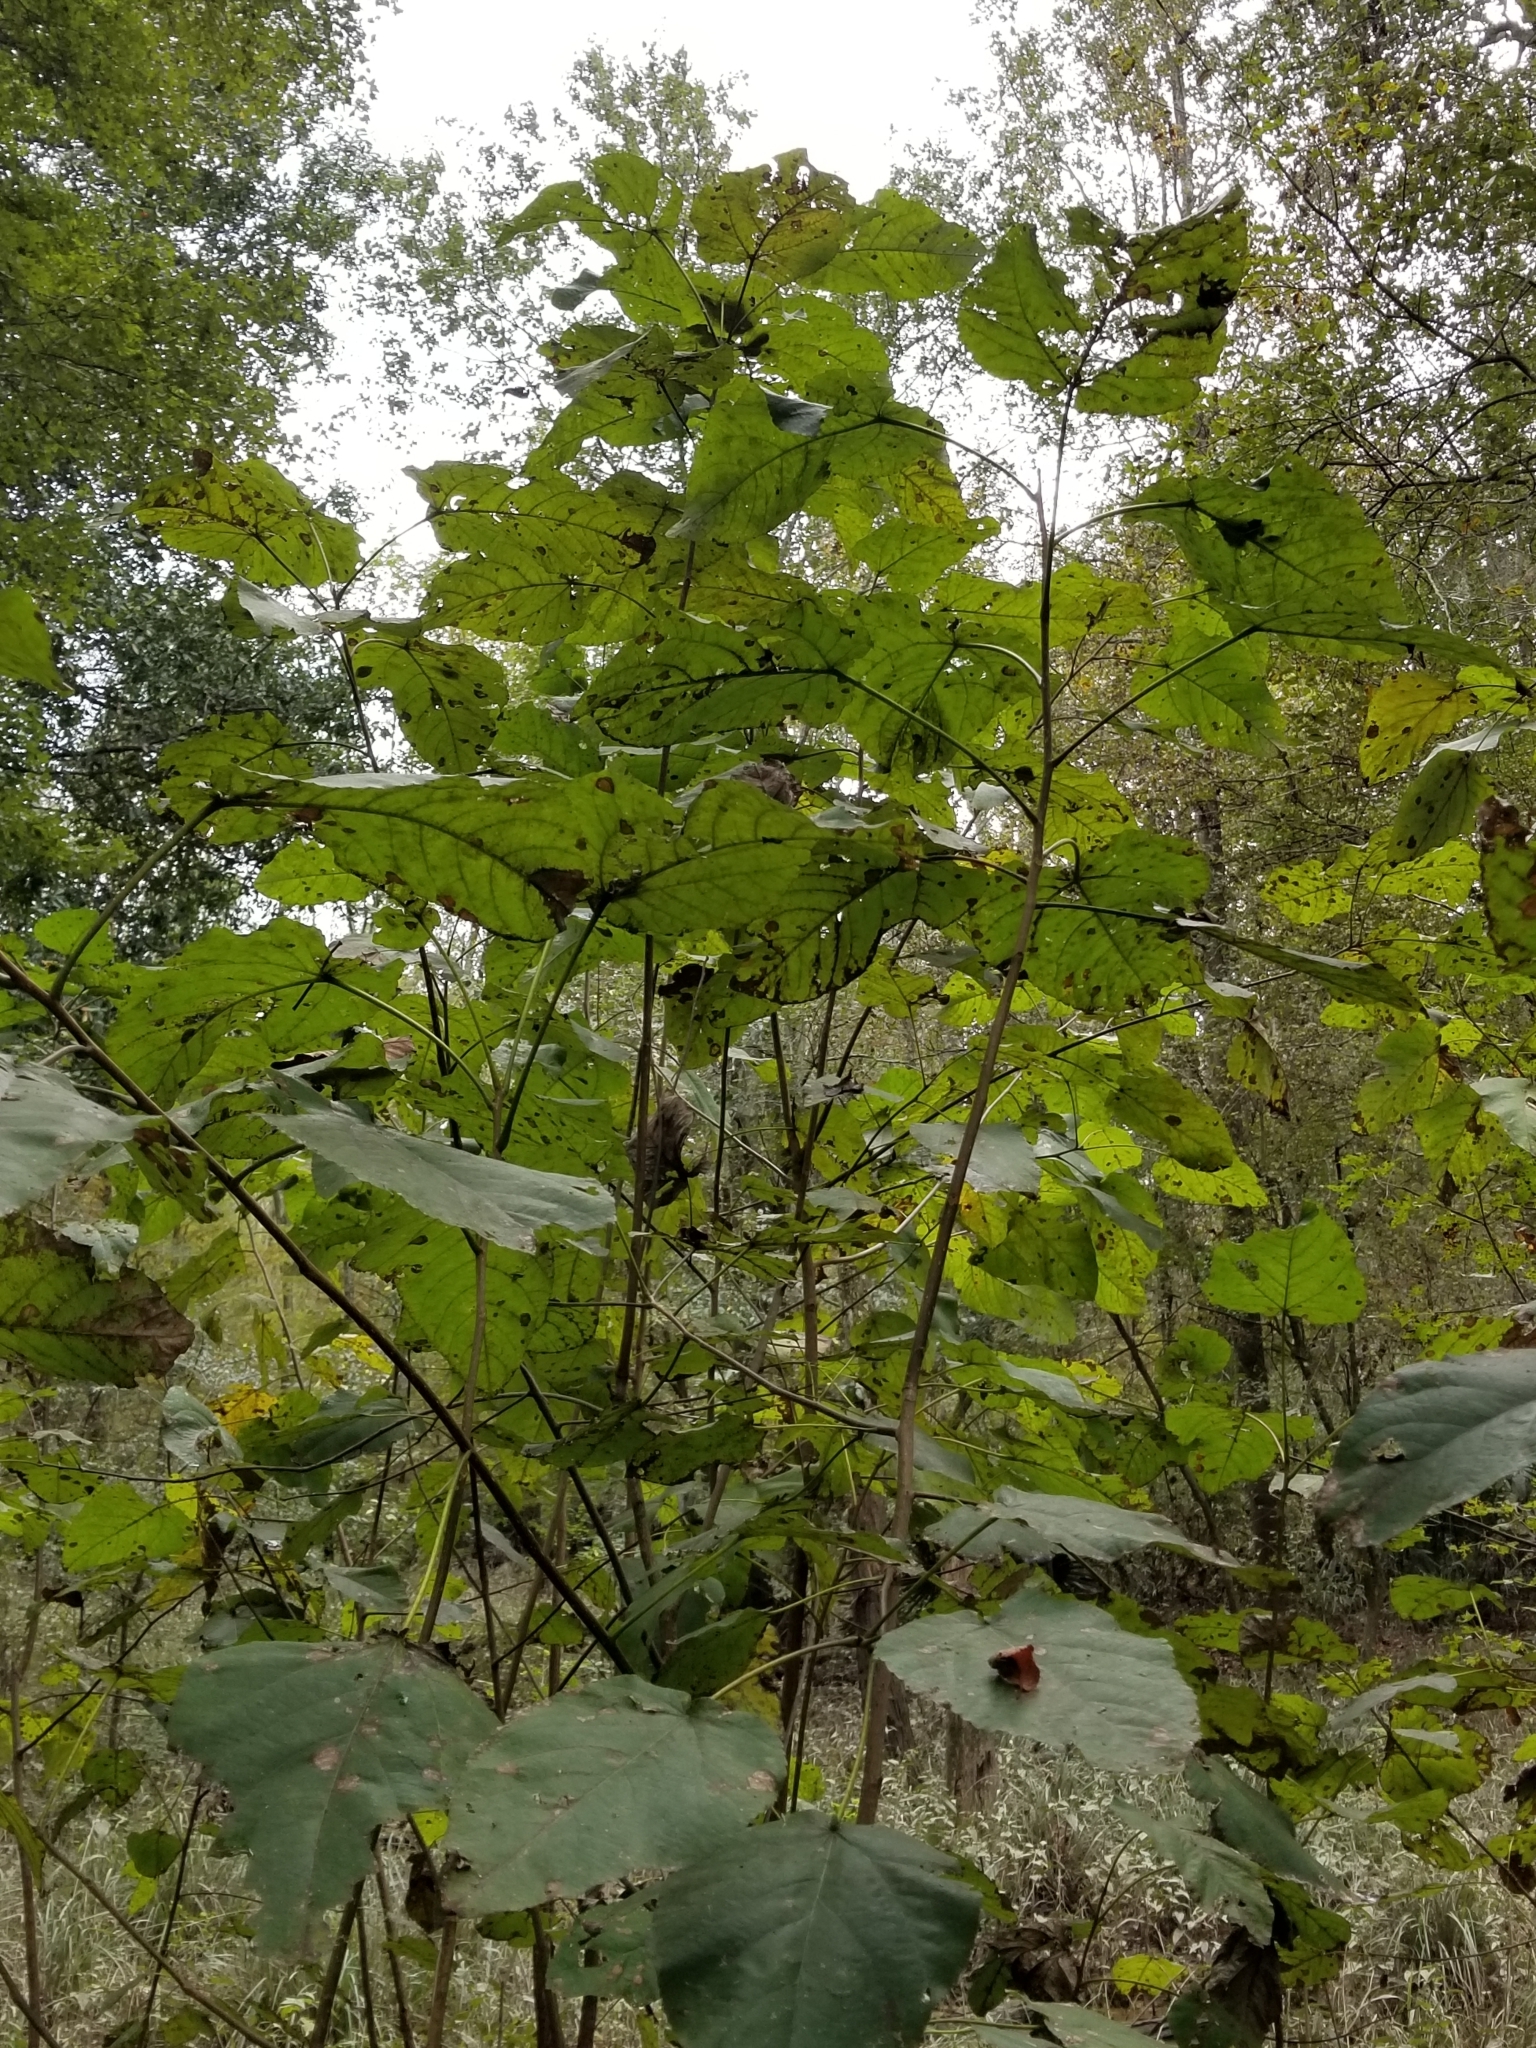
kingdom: Plantae
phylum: Tracheophyta
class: Magnoliopsida
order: Malpighiales
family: Salicaceae
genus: Populus
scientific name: Populus heterophylla
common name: Downy poplar
